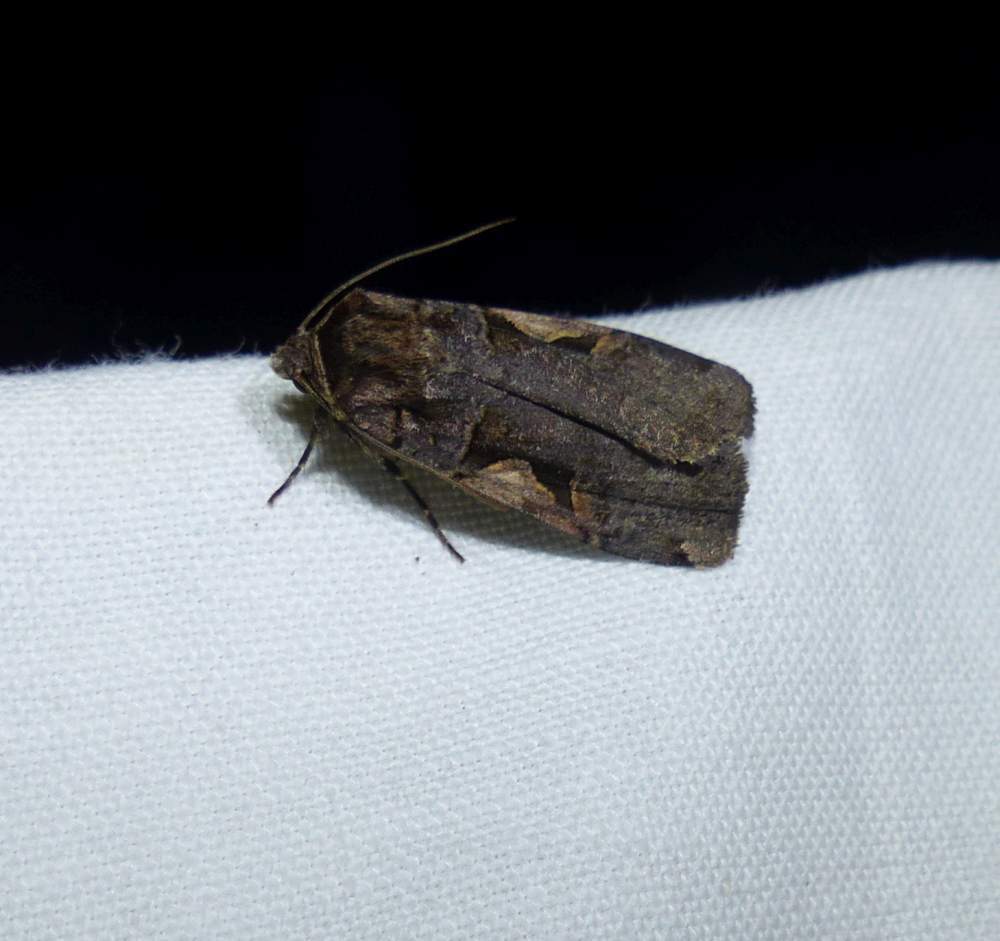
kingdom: Animalia
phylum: Arthropoda
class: Insecta
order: Lepidoptera
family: Noctuidae
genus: Xestia
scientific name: Xestia
